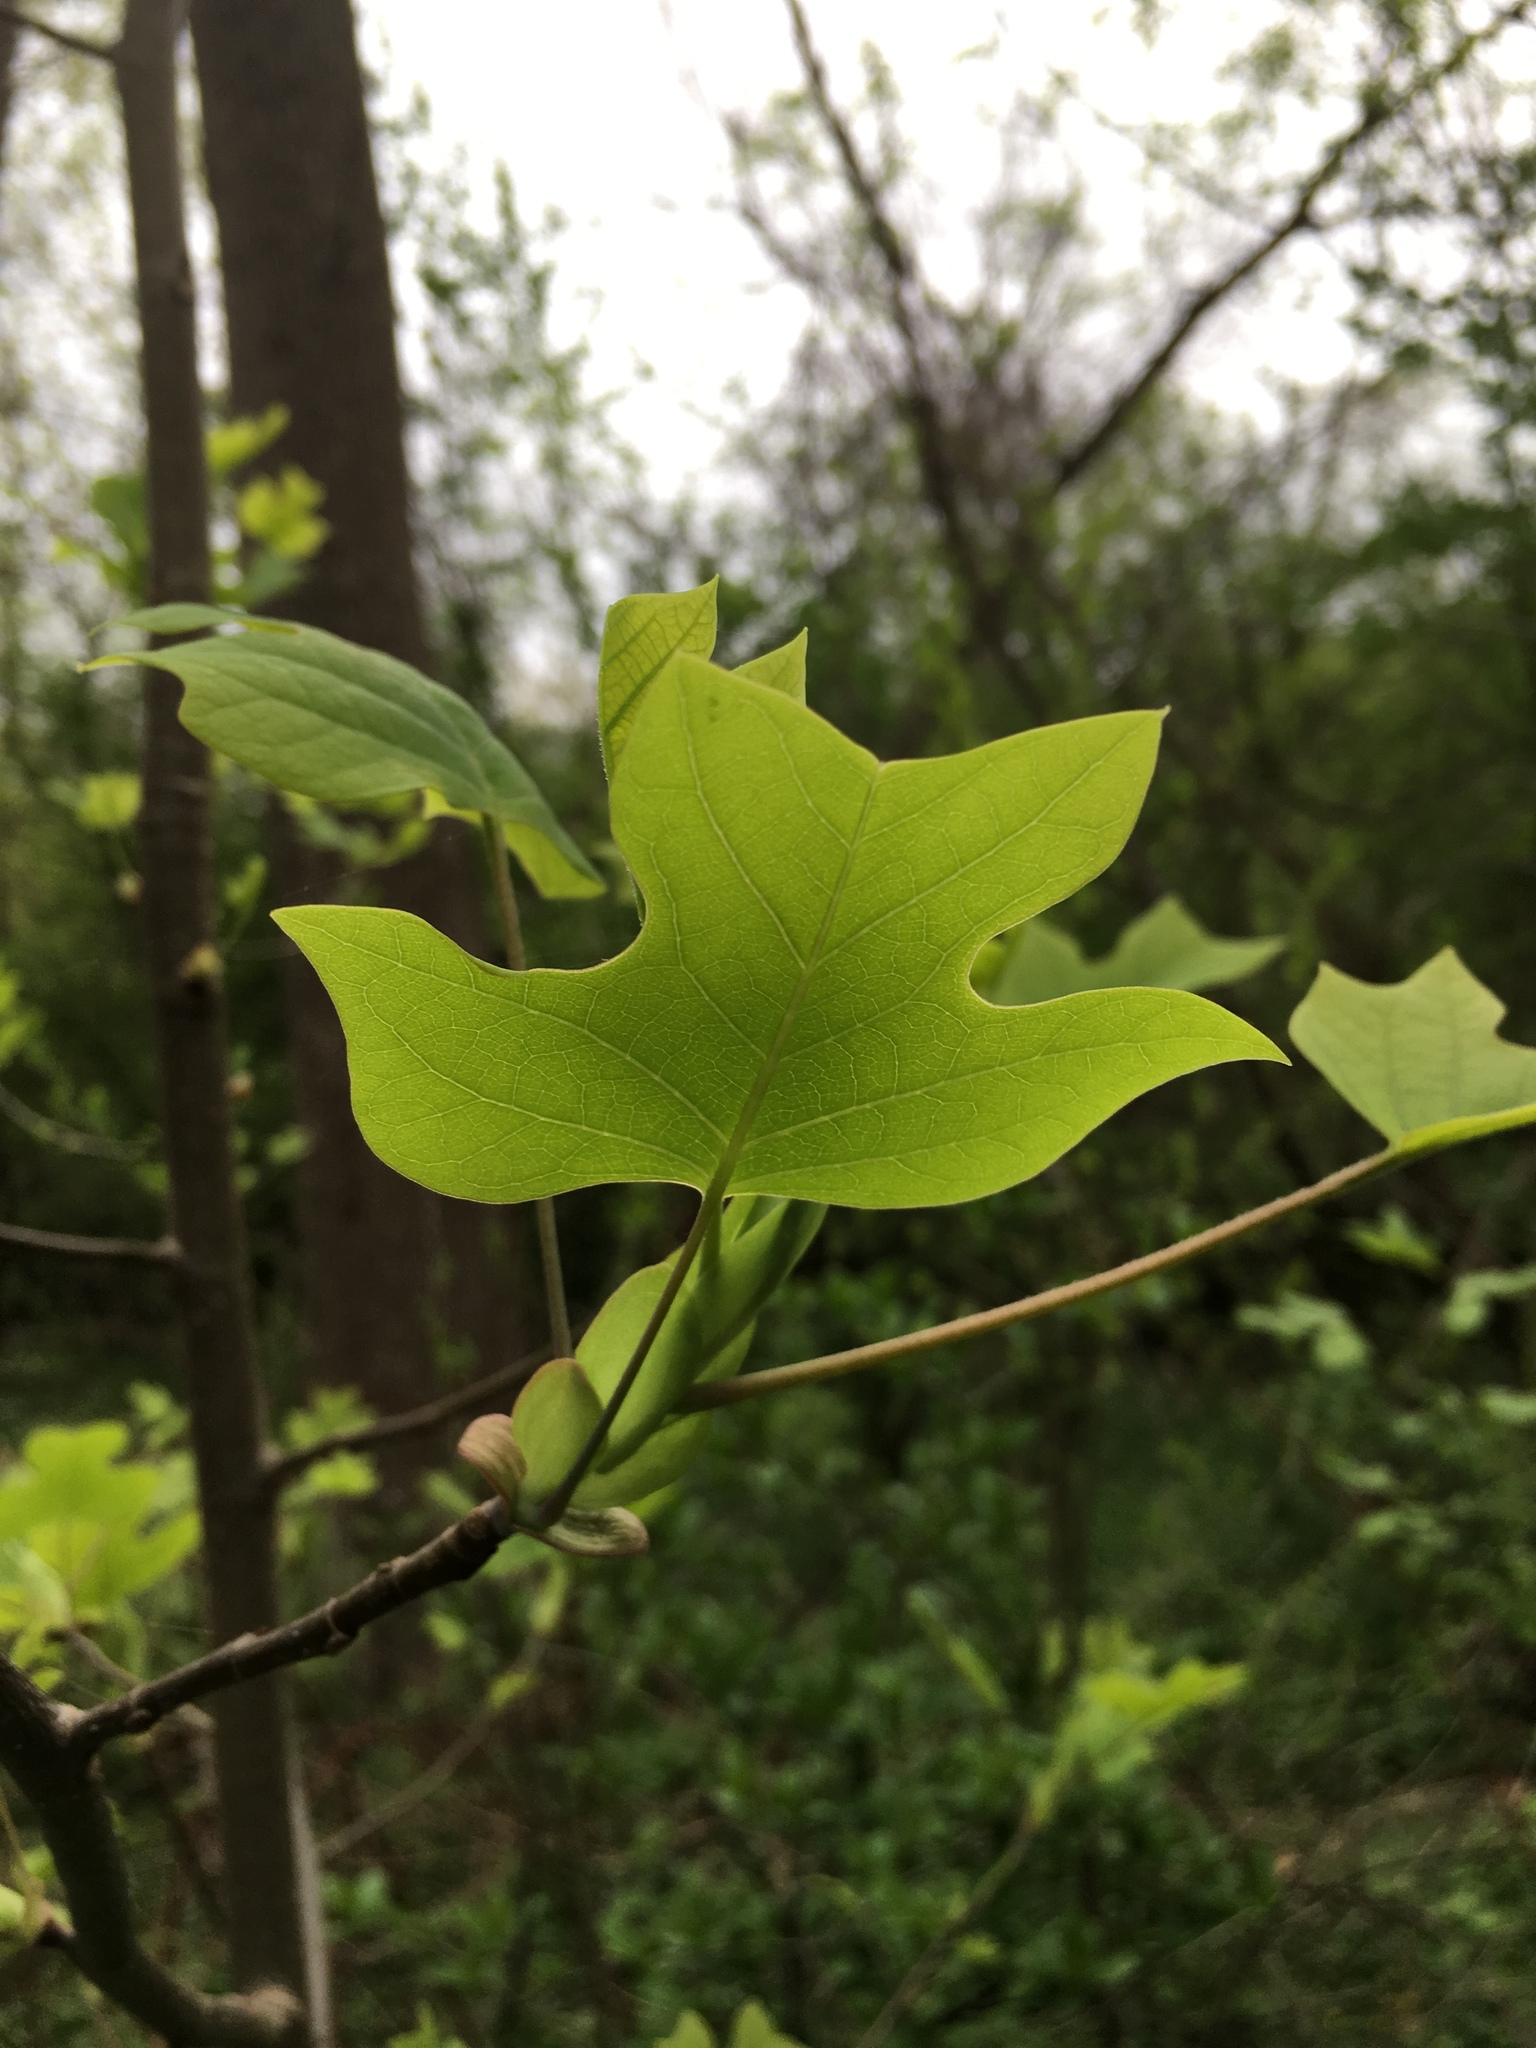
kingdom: Plantae
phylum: Tracheophyta
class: Magnoliopsida
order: Magnoliales
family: Magnoliaceae
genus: Liriodendron
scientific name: Liriodendron tulipifera
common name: Tulip tree
